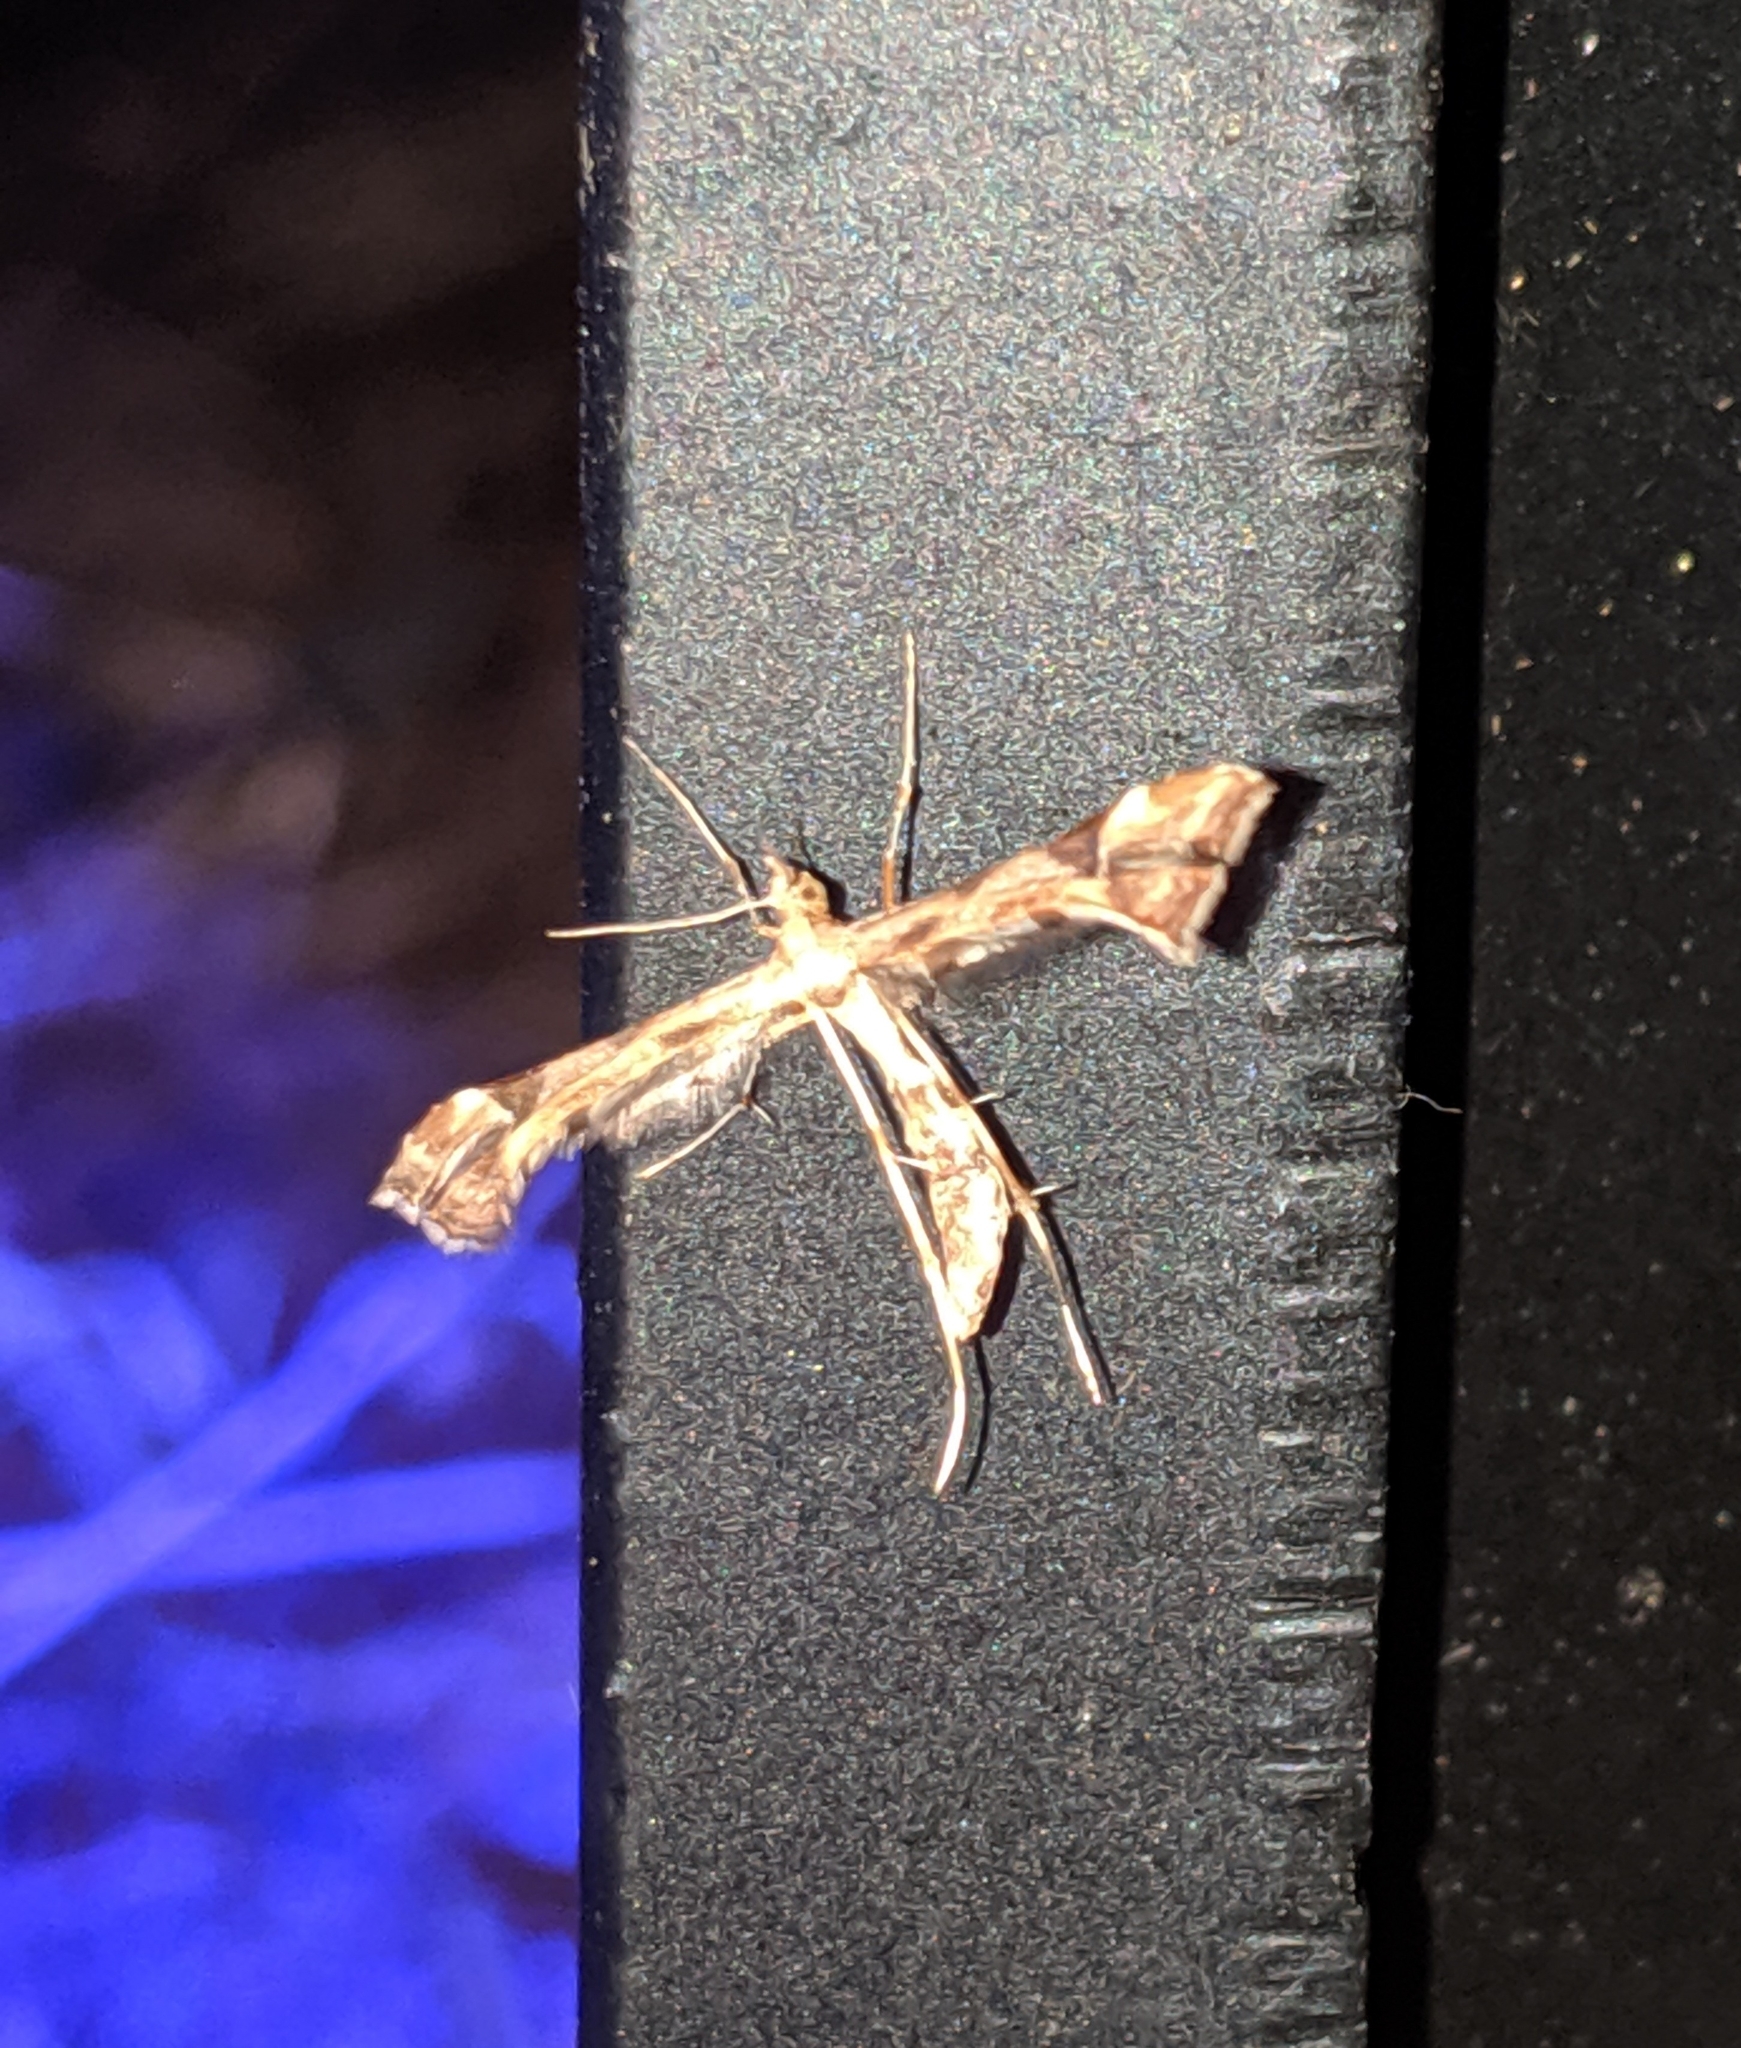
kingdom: Animalia
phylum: Arthropoda
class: Insecta
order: Lepidoptera
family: Pterophoridae
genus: Platyptilia
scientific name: Platyptilia carduidactylus
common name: Artichoke plume moth
